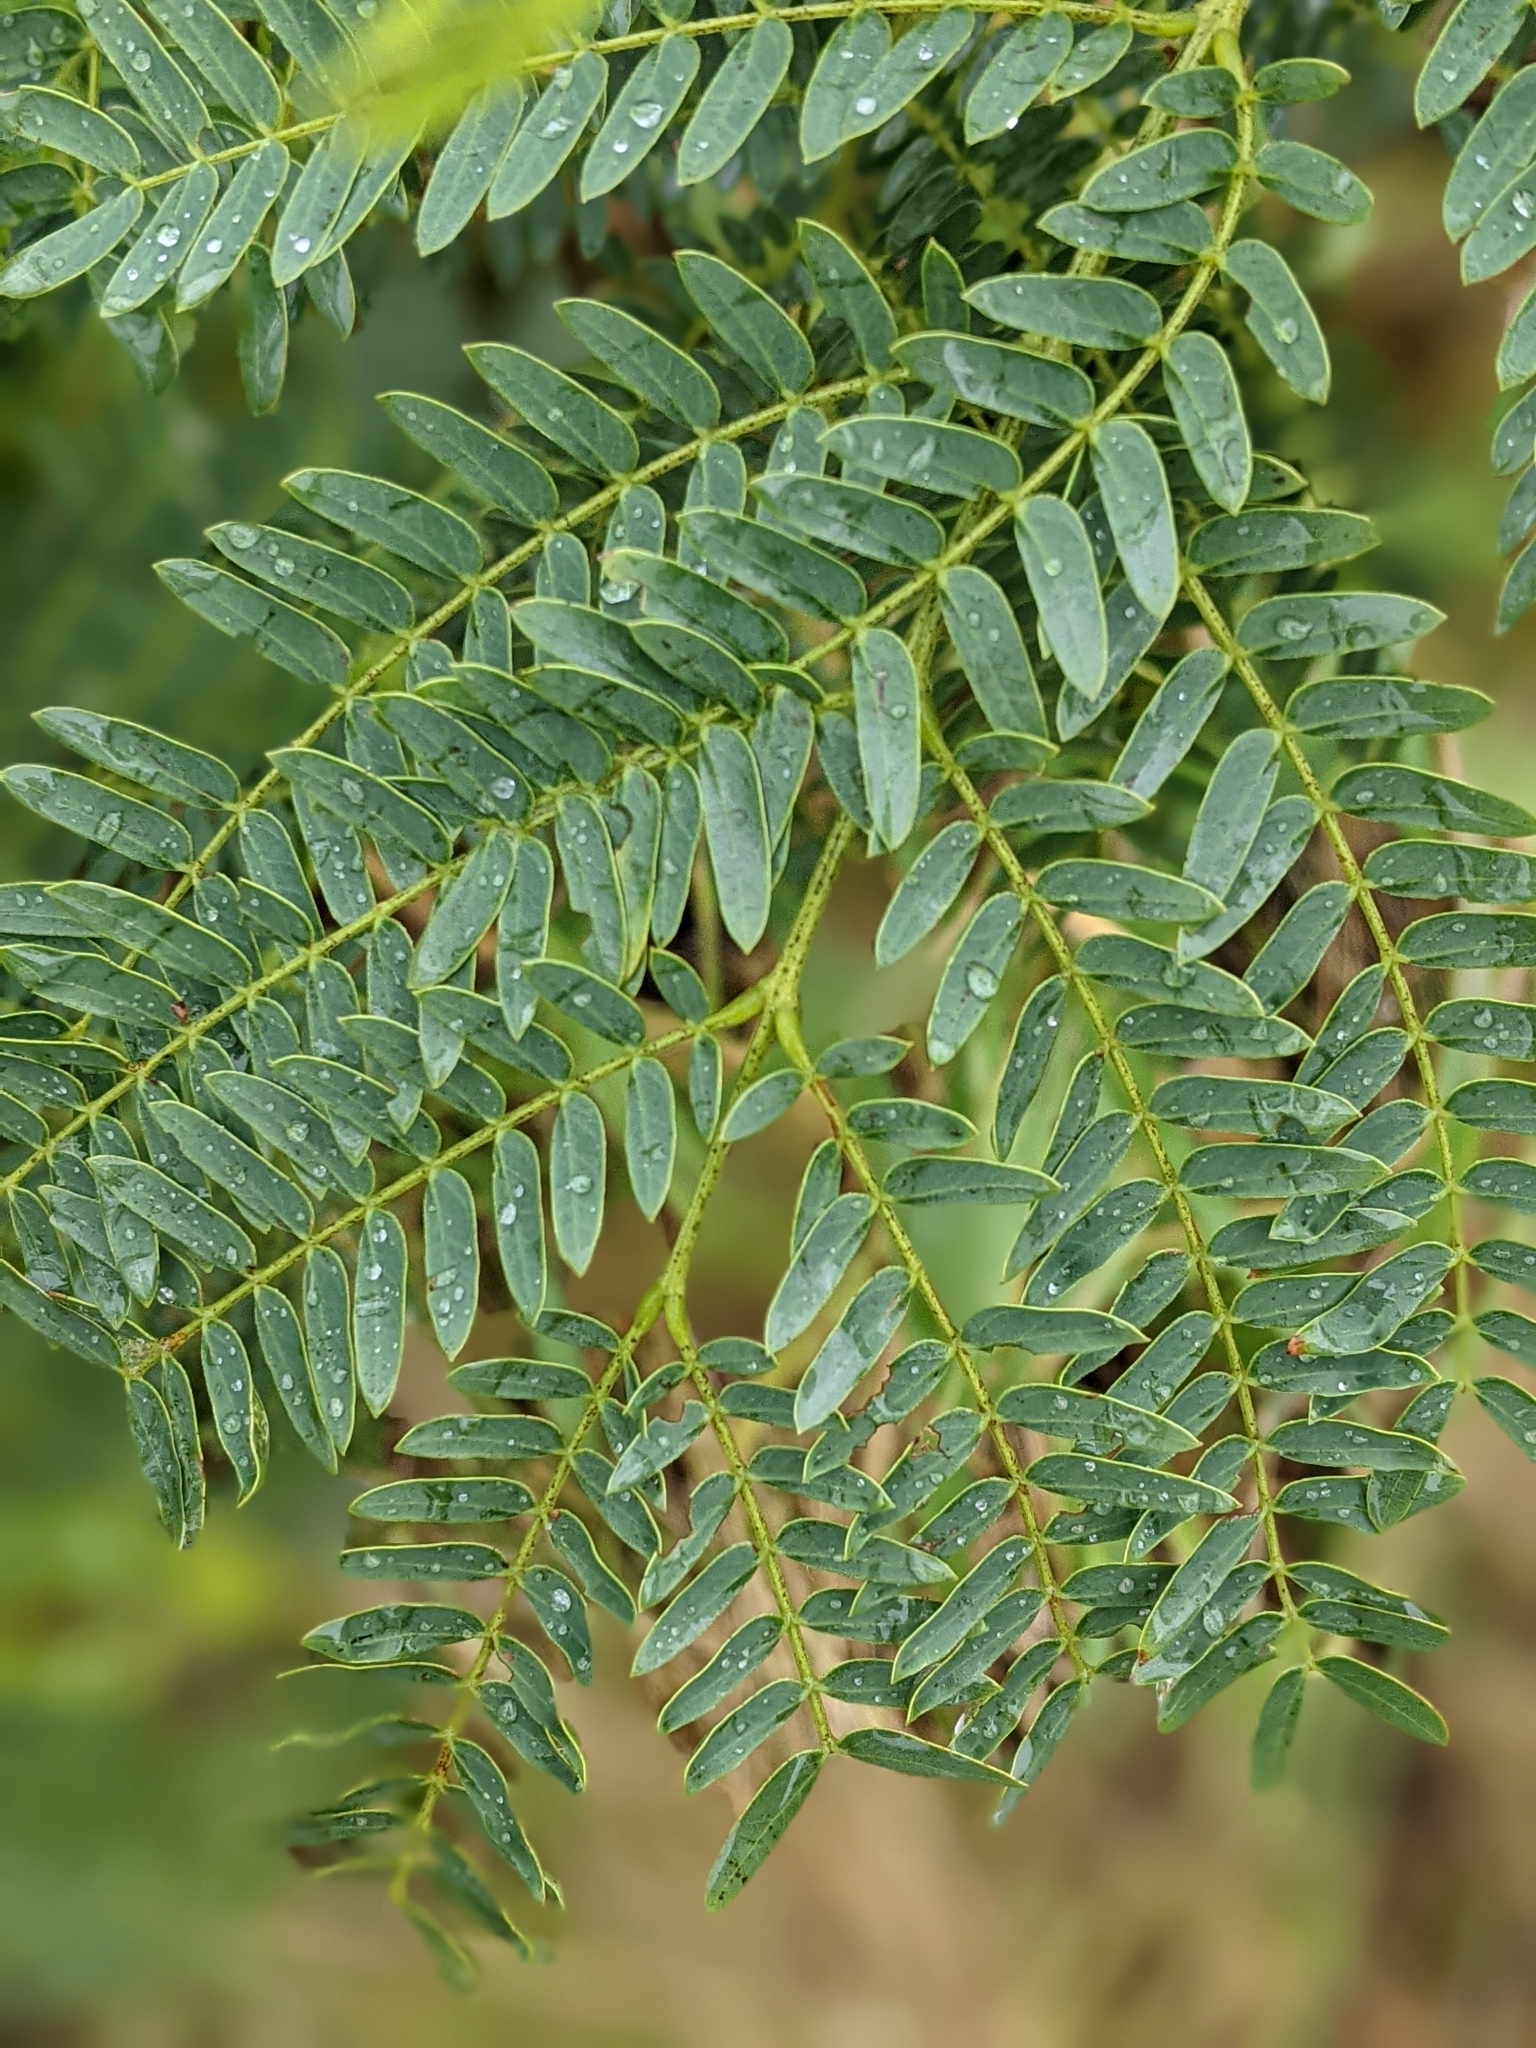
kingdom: Plantae
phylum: Tracheophyta
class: Magnoliopsida
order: Fabales
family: Fabaceae
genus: Leucaena
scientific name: Leucaena leucocephala
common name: White leadtree
